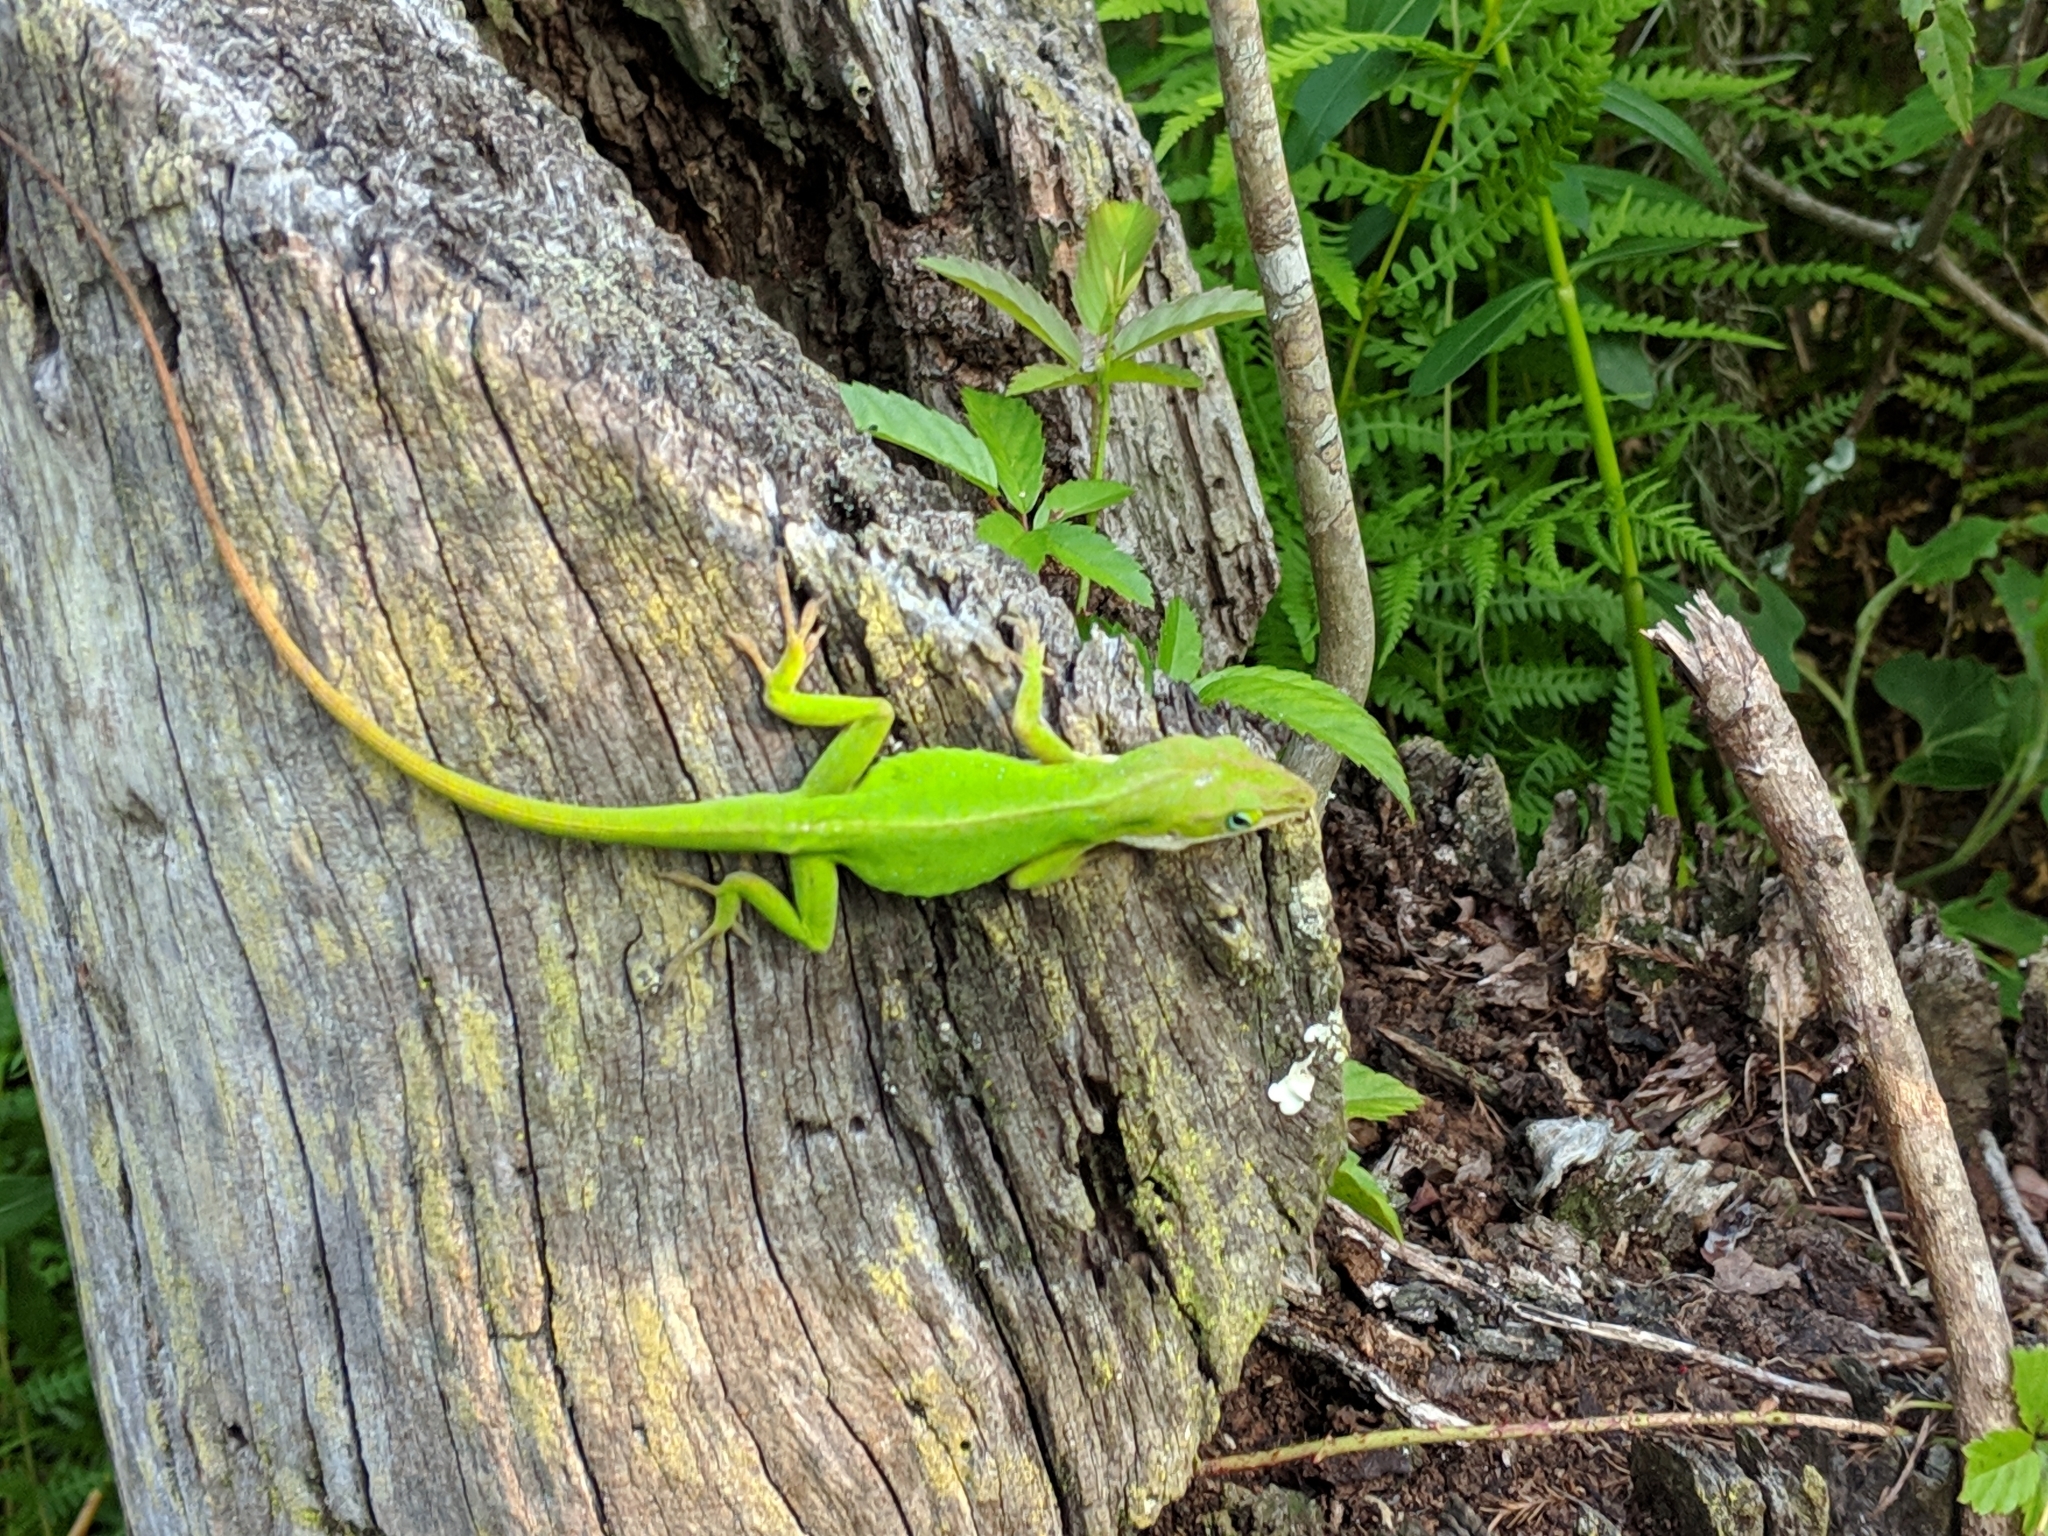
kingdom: Animalia
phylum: Chordata
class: Squamata
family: Dactyloidae
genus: Anolis
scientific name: Anolis carolinensis
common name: Green anole
